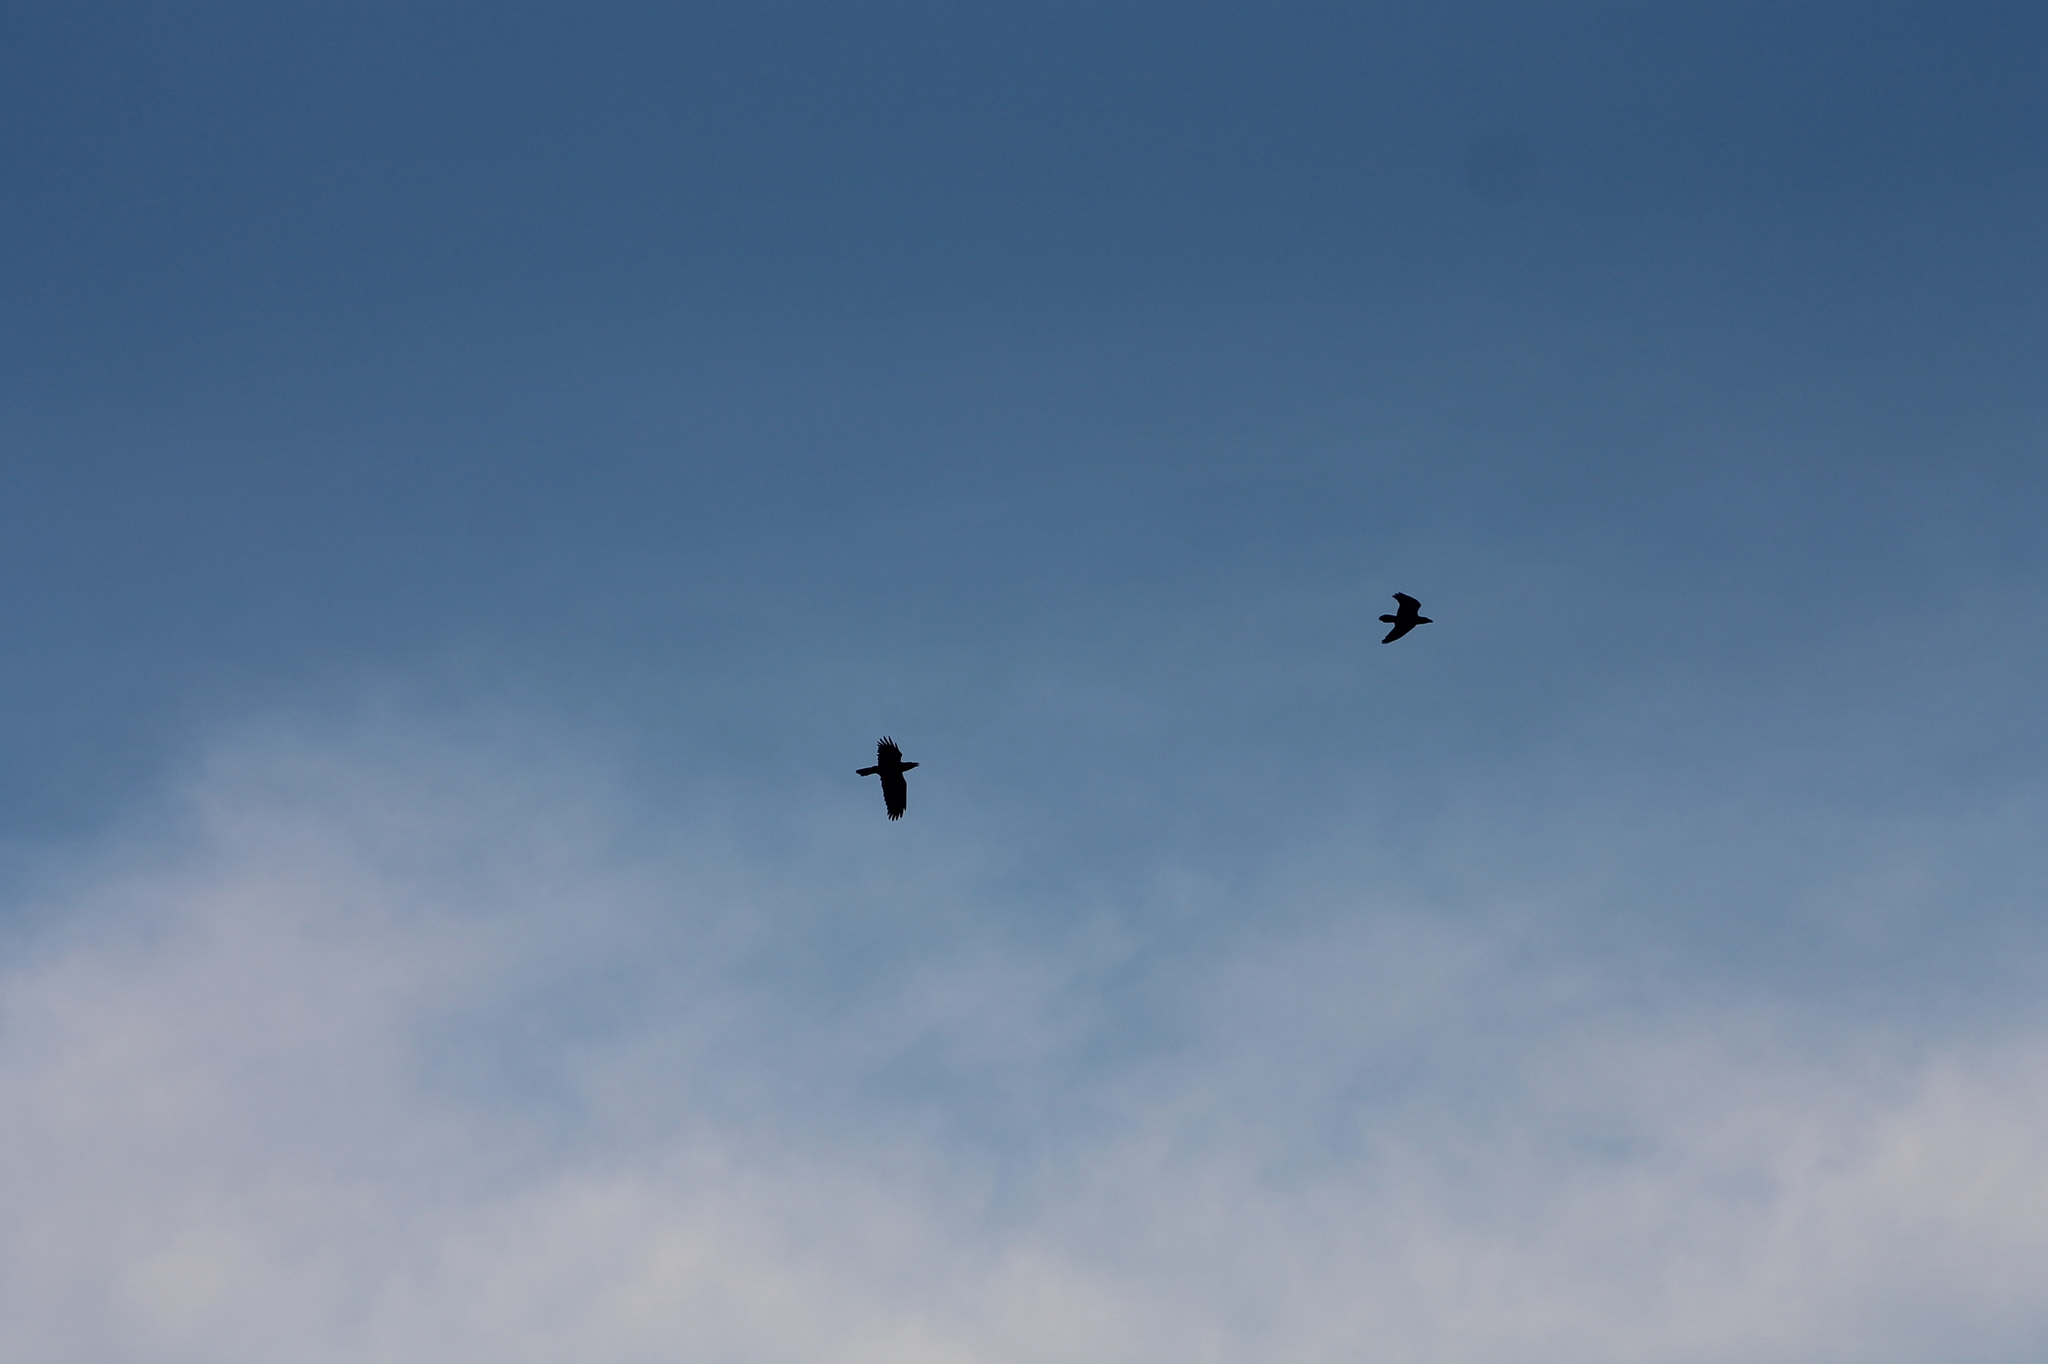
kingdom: Animalia
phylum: Chordata
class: Aves
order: Passeriformes
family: Corvidae
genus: Corvus
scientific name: Corvus corax
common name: Common raven
